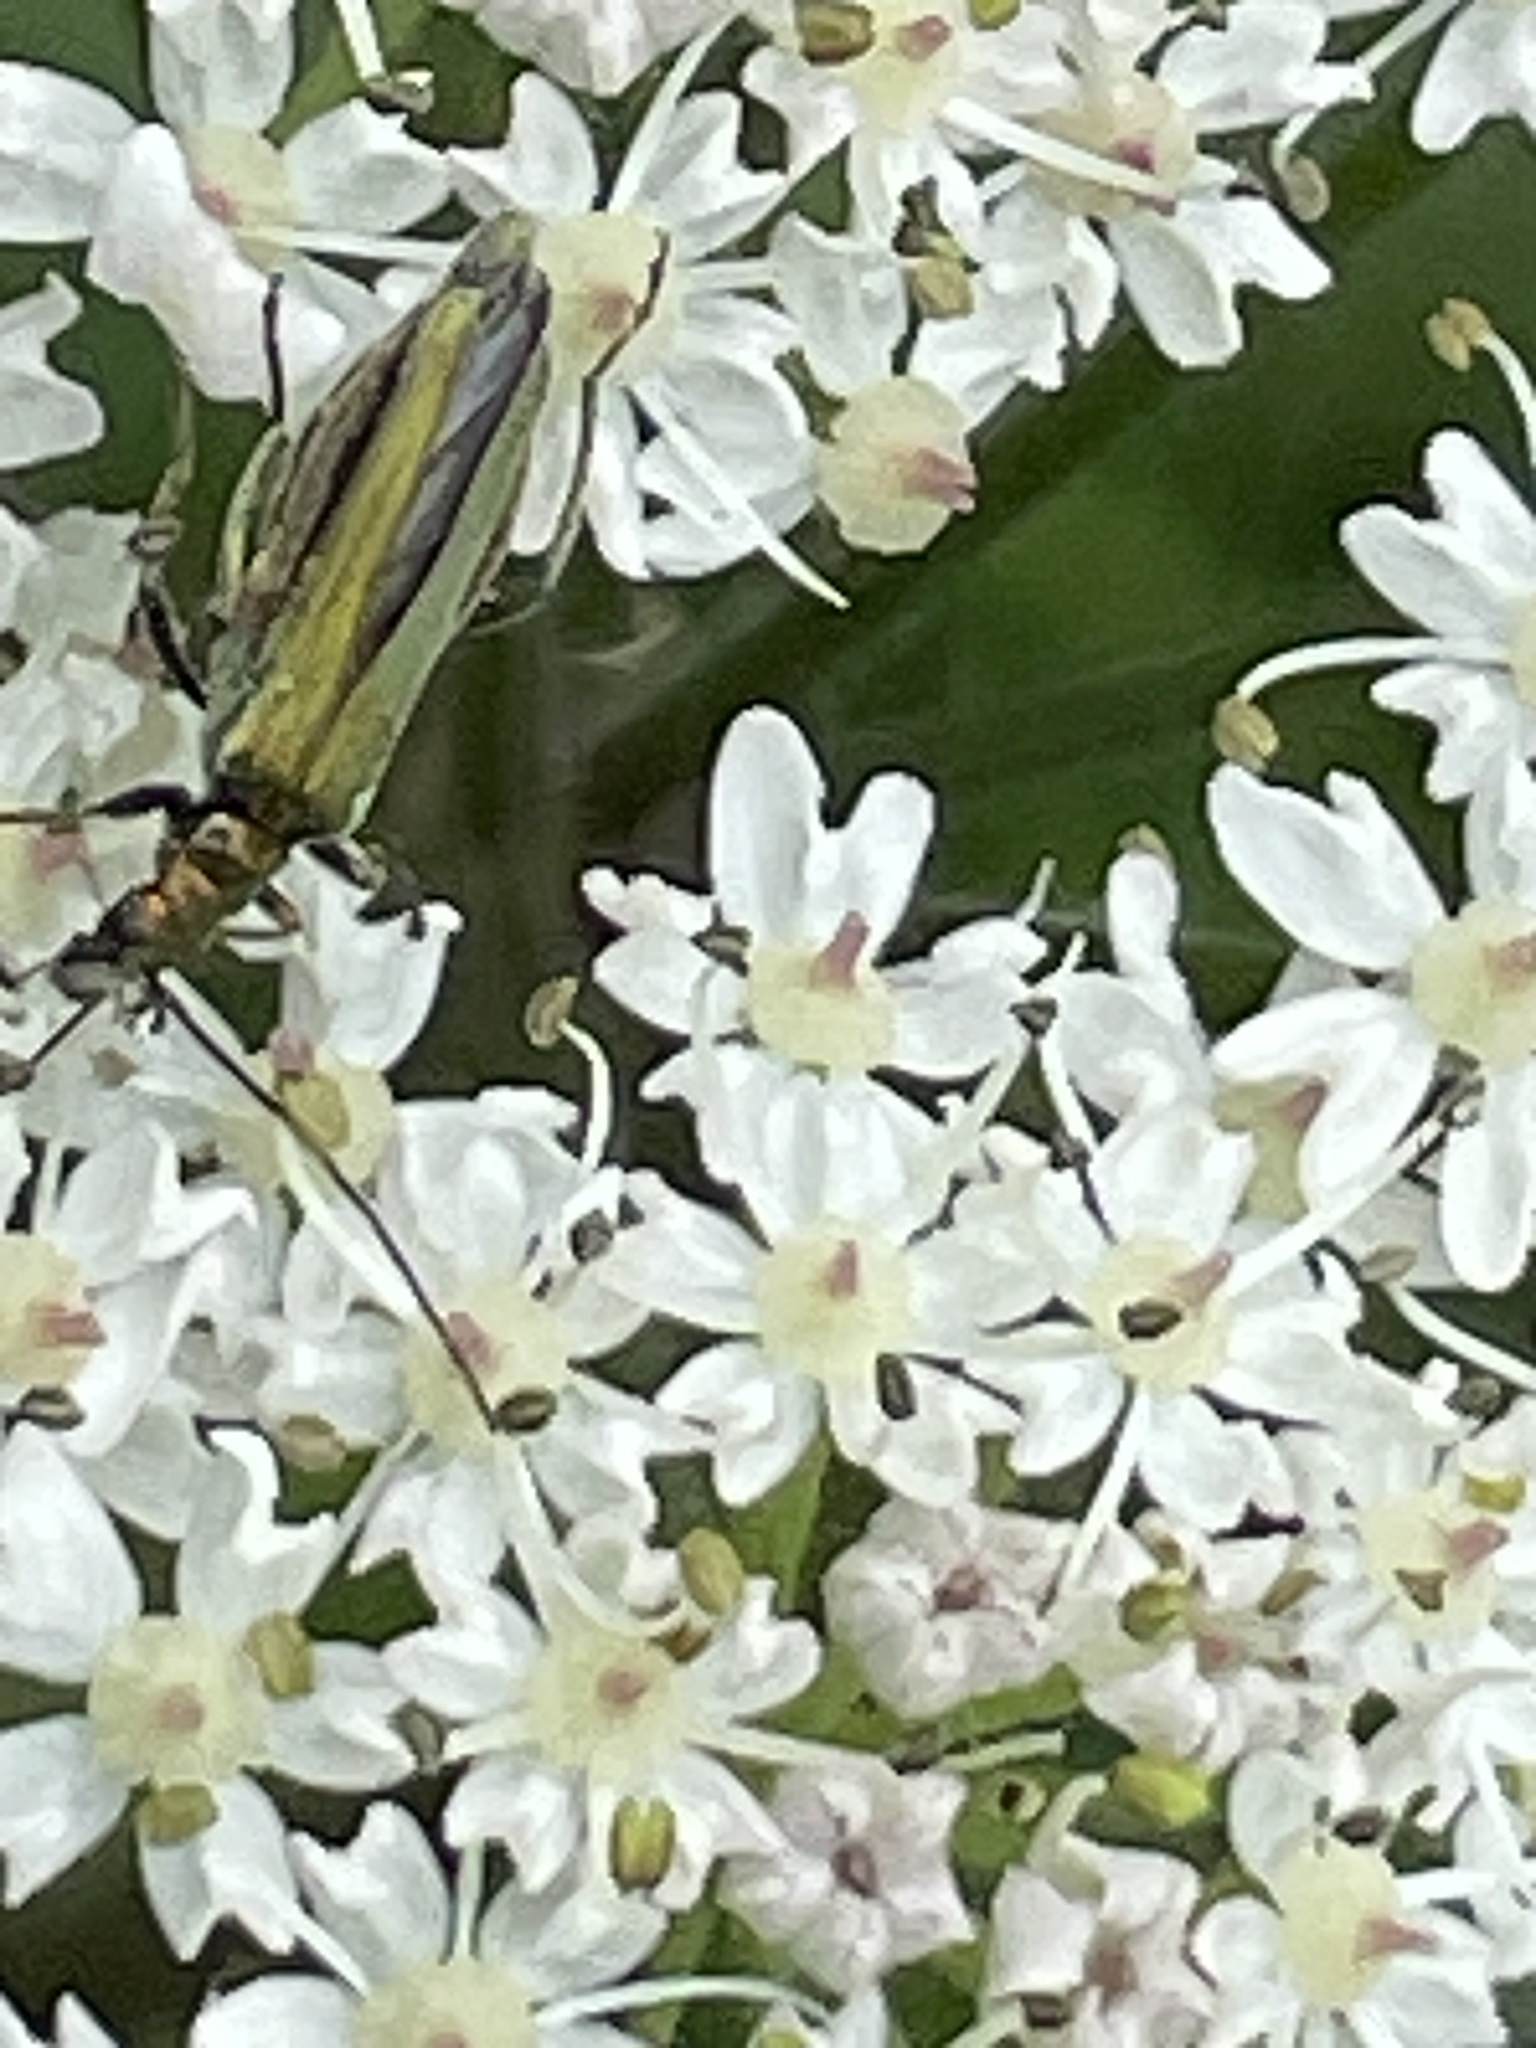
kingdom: Animalia
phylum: Arthropoda
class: Insecta
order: Coleoptera
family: Oedemeridae
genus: Oedemera
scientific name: Oedemera nobilis
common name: Swollen-thighed beetle
